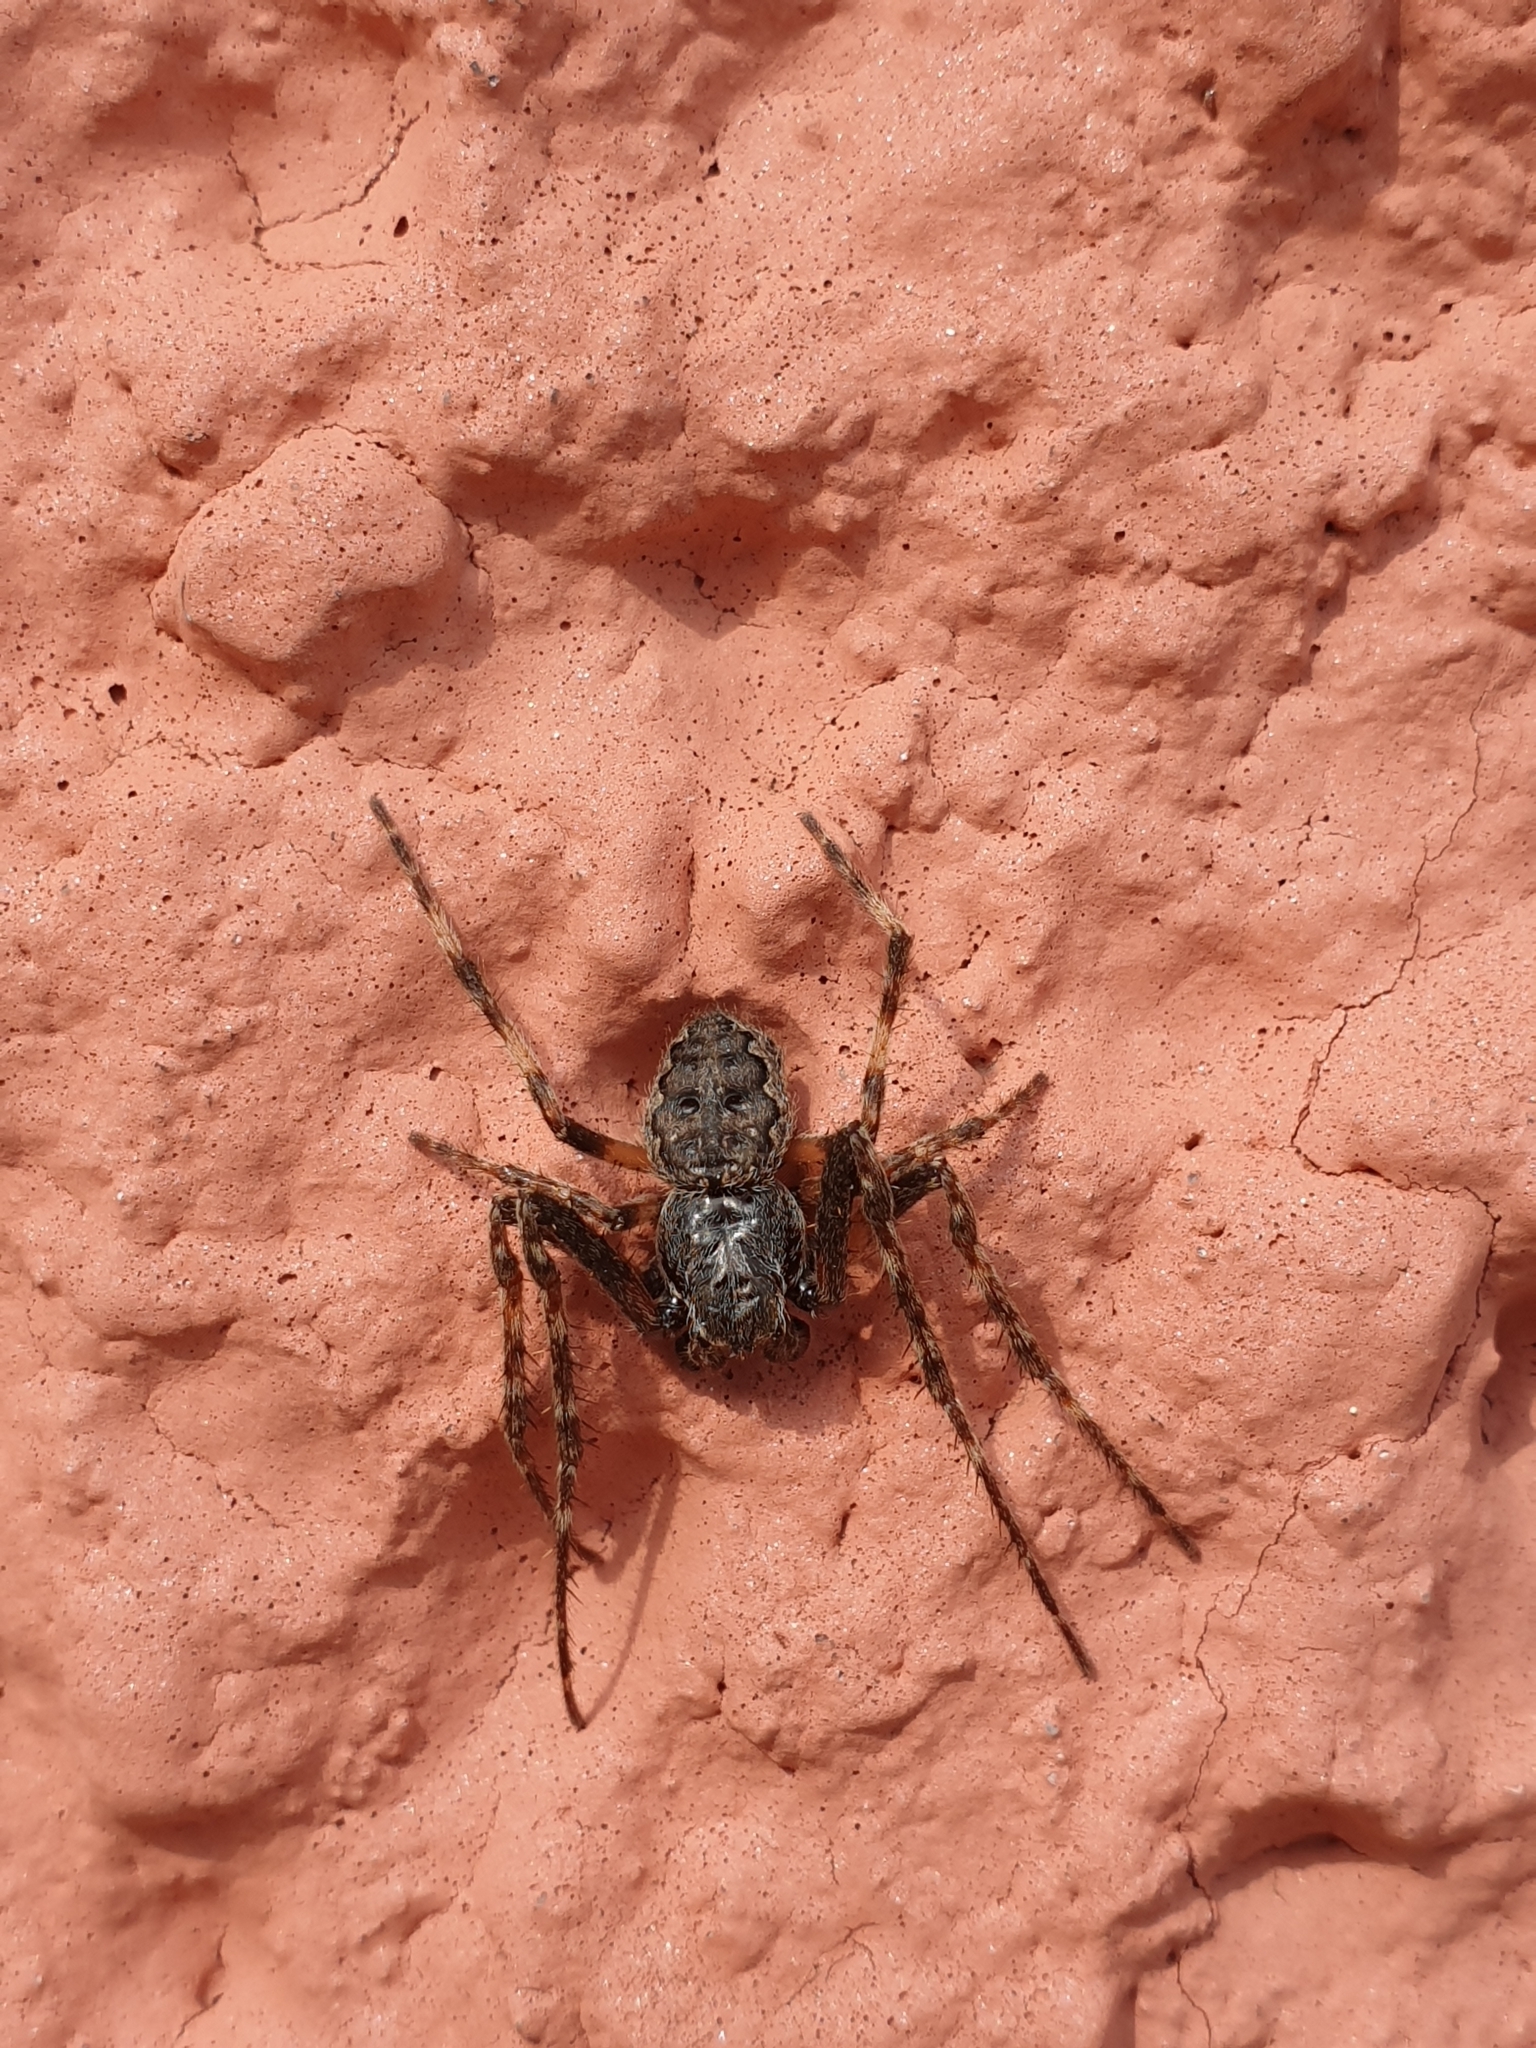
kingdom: Animalia
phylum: Arthropoda
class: Arachnida
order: Araneae
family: Araneidae
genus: Nuctenea
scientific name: Nuctenea umbratica
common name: Toad spider
